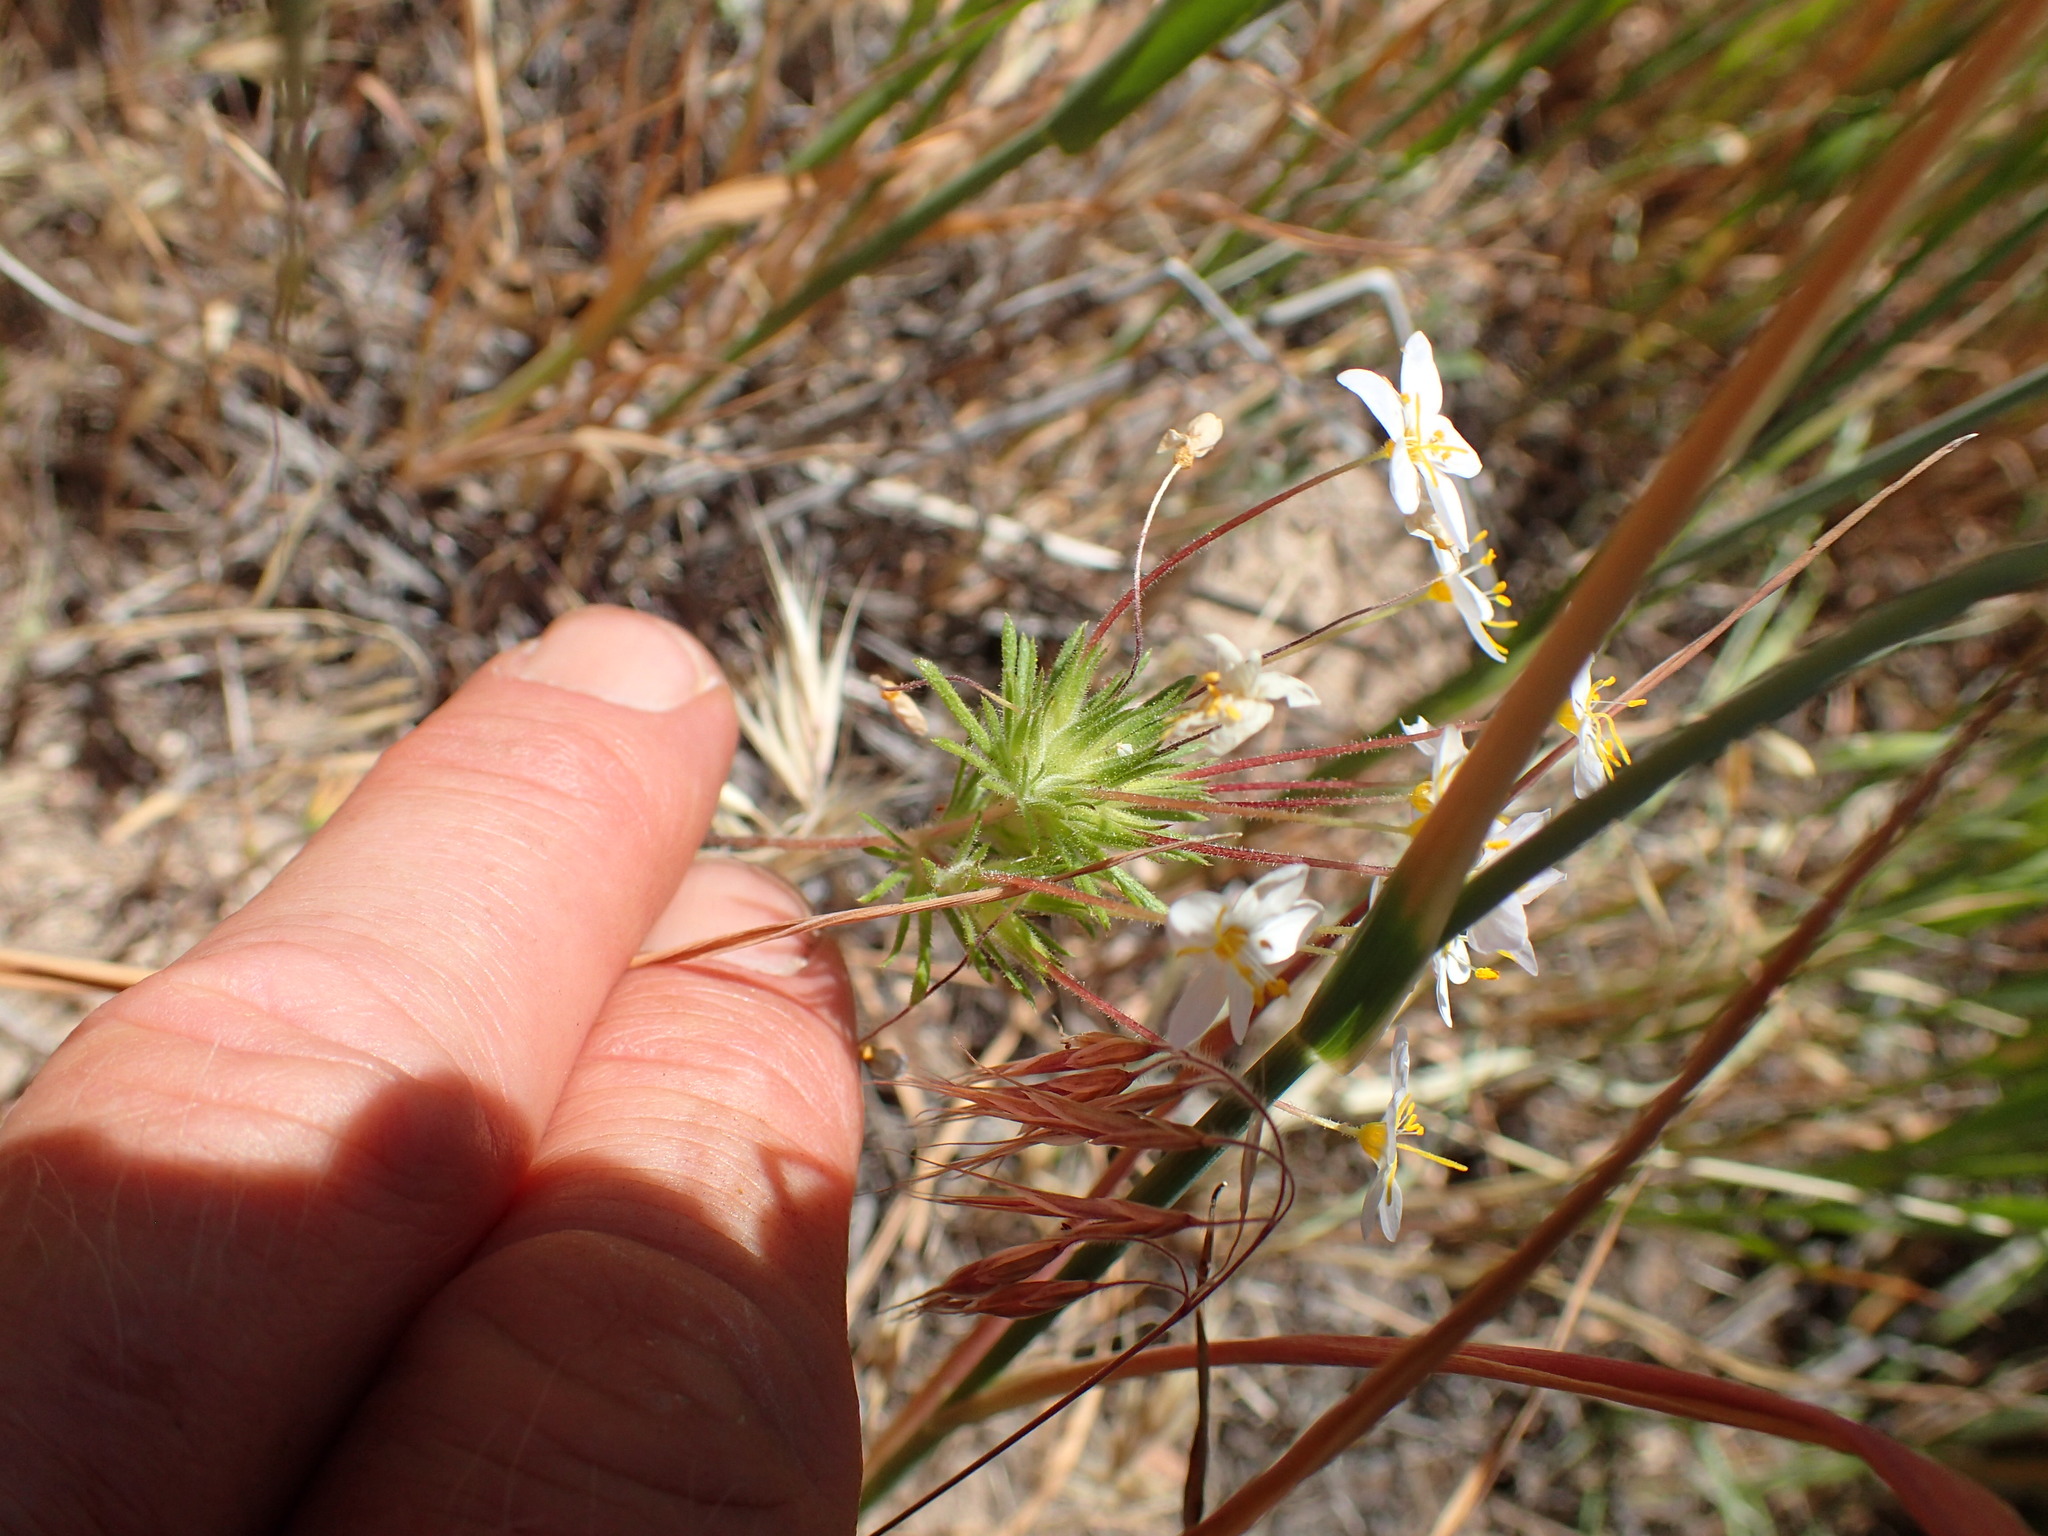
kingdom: Plantae
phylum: Tracheophyta
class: Magnoliopsida
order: Ericales
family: Polemoniaceae
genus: Leptosiphon
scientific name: Leptosiphon parviflorus
